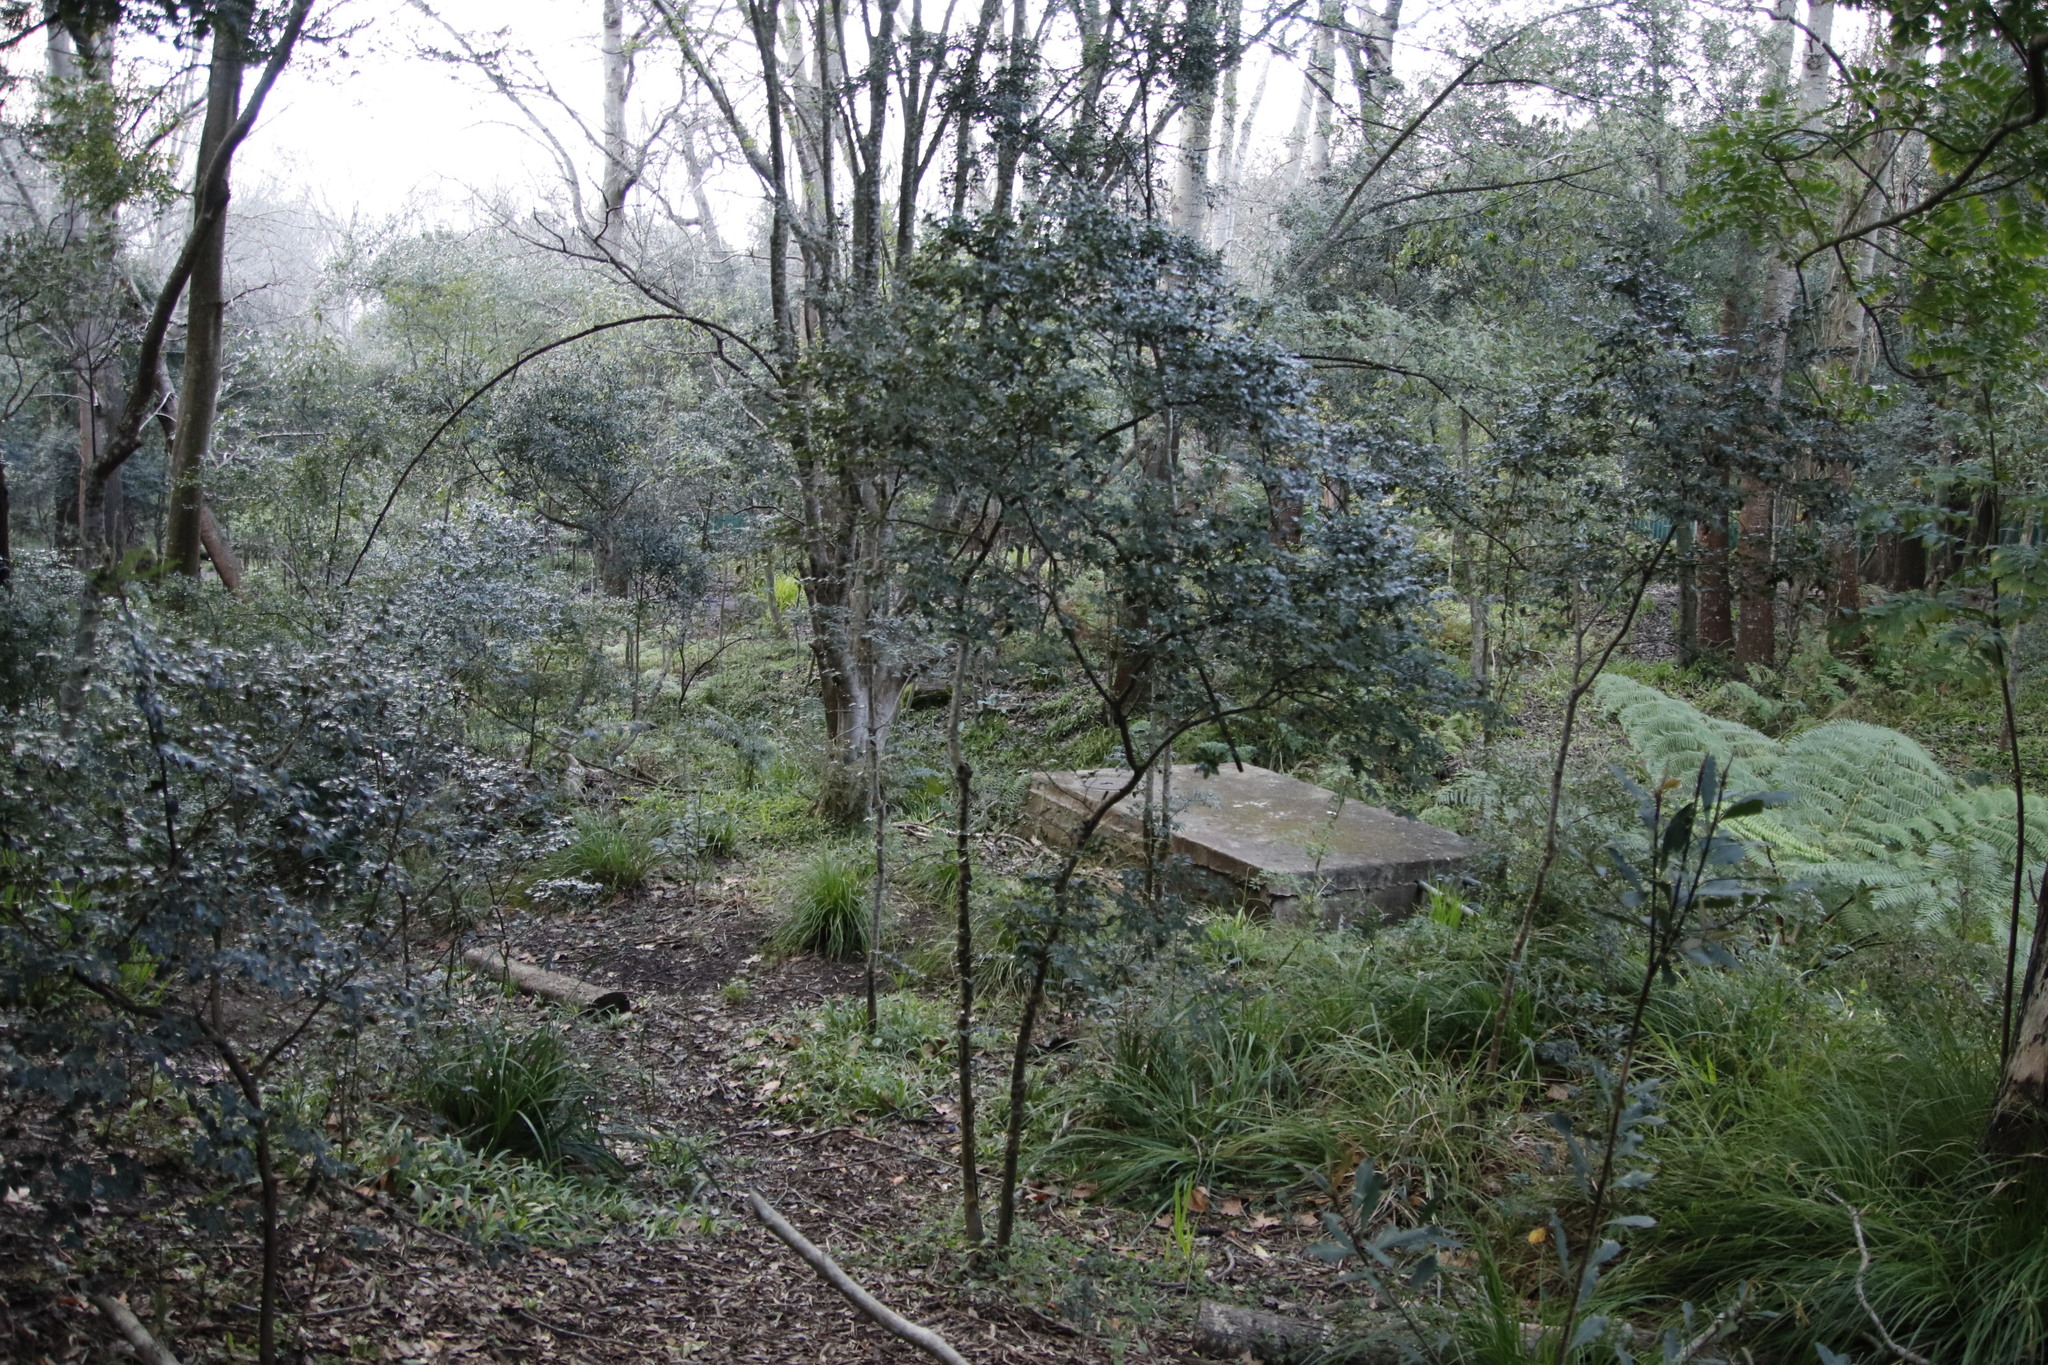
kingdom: Plantae
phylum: Tracheophyta
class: Magnoliopsida
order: Ericales
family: Ebenaceae
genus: Diospyros
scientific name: Diospyros whyteana
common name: Bladder-nut
